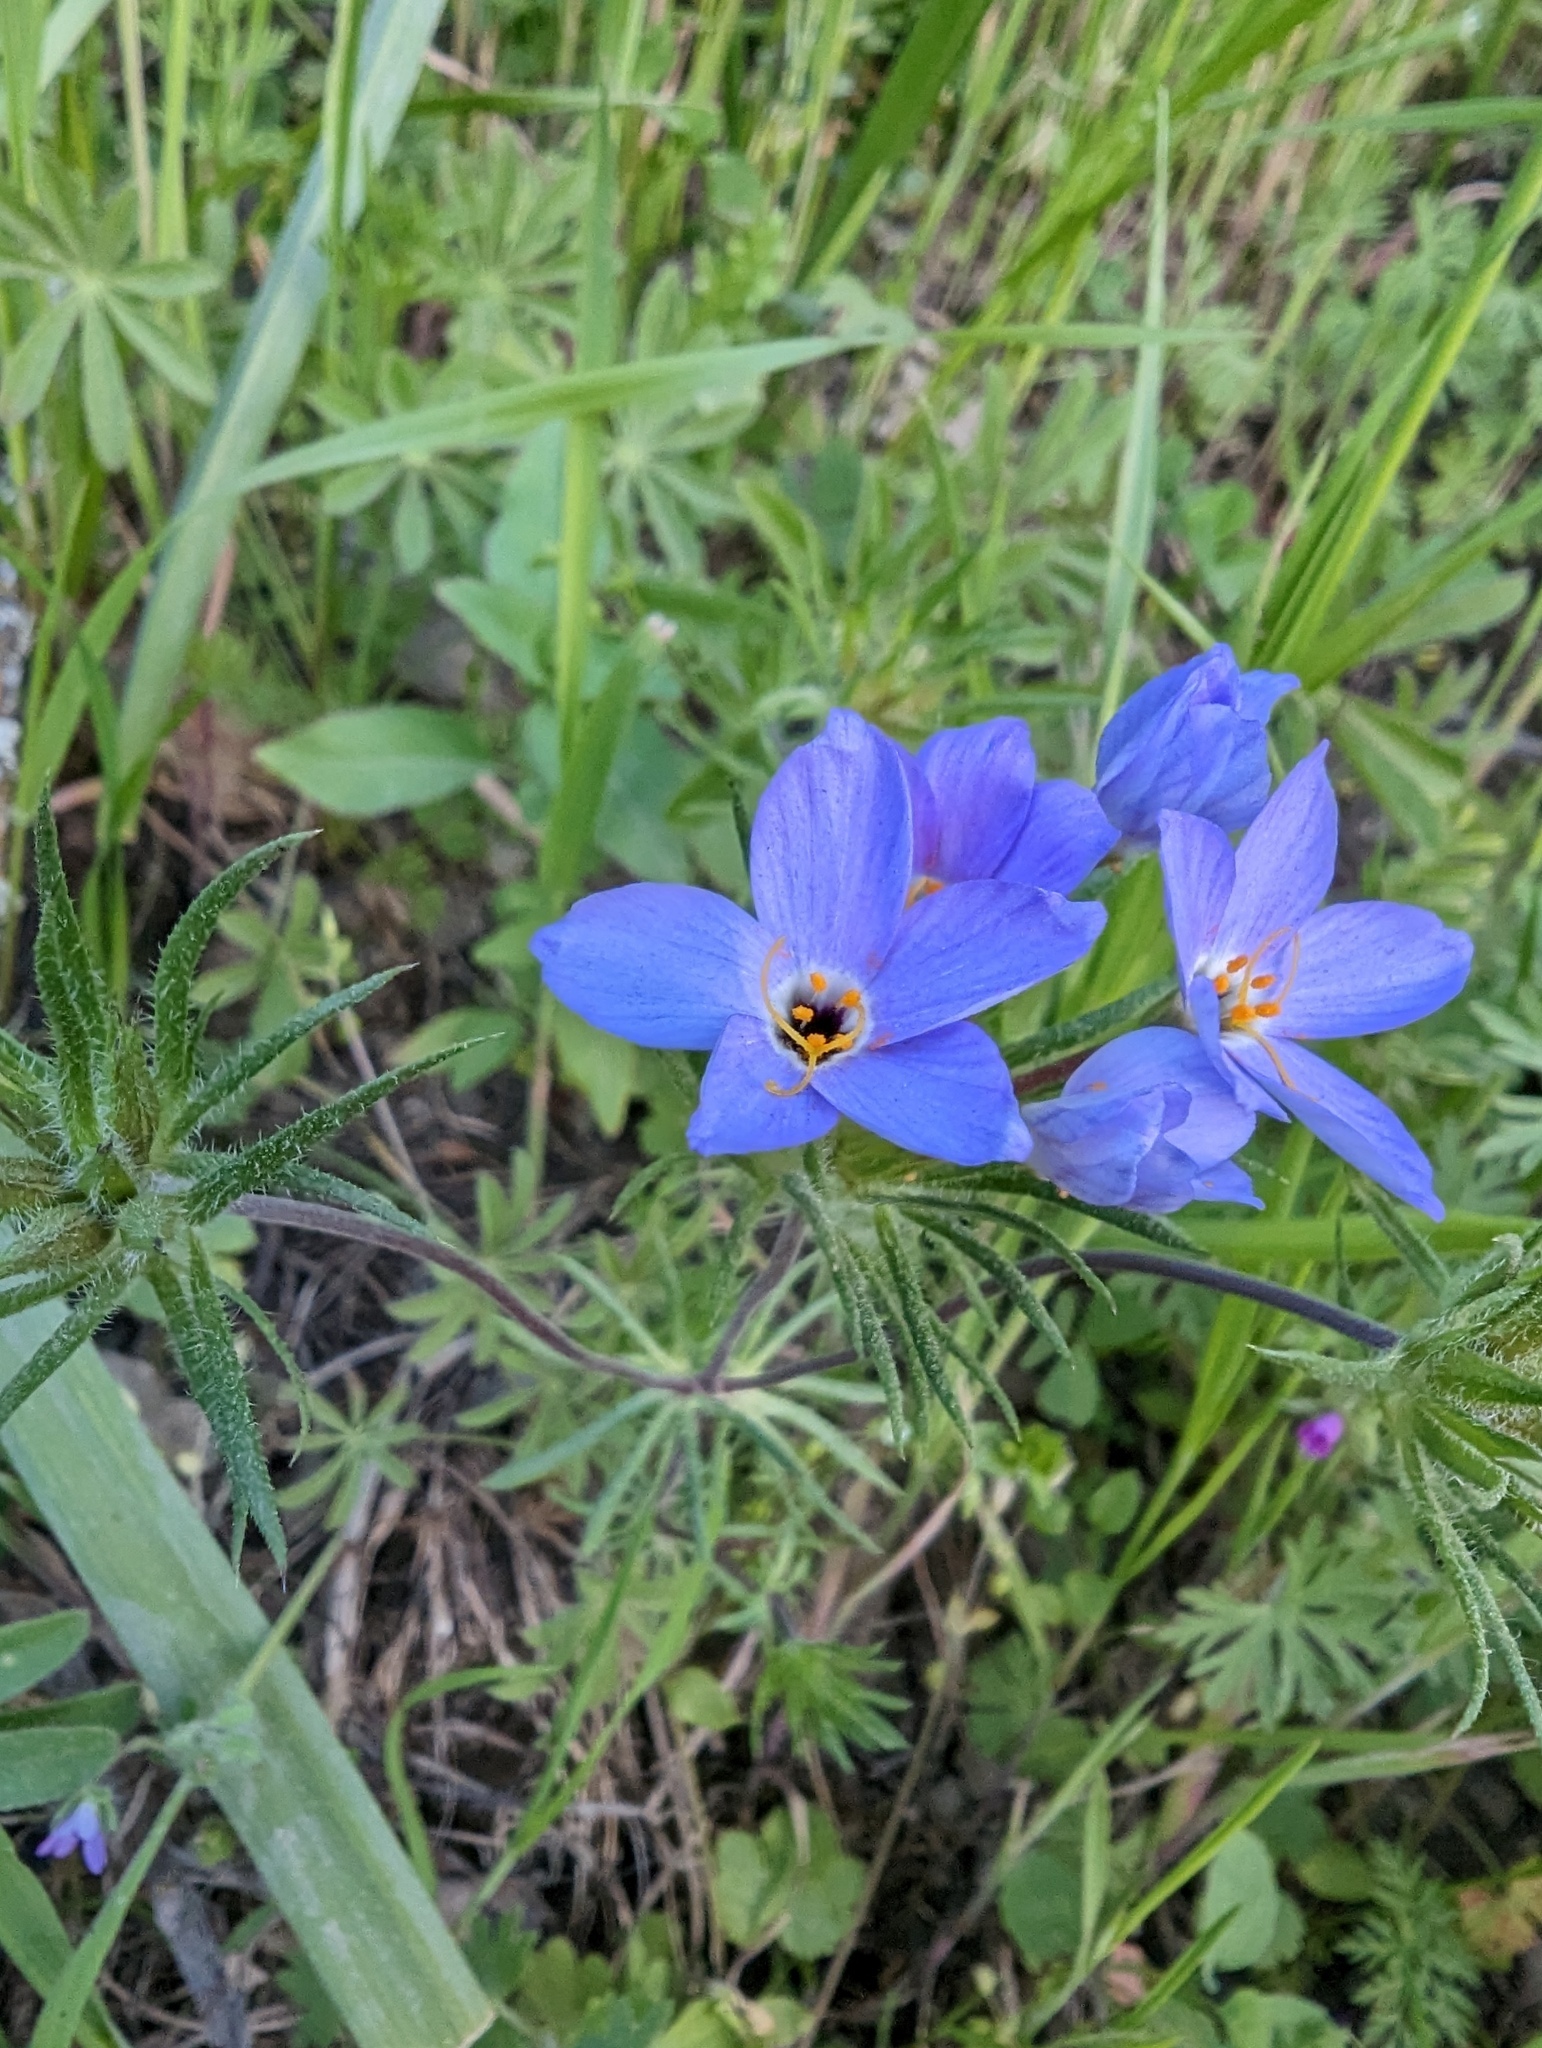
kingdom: Plantae
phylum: Tracheophyta
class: Magnoliopsida
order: Ericales
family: Polemoniaceae
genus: Leptosiphon
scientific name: Leptosiphon androsaceus
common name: False babystars
